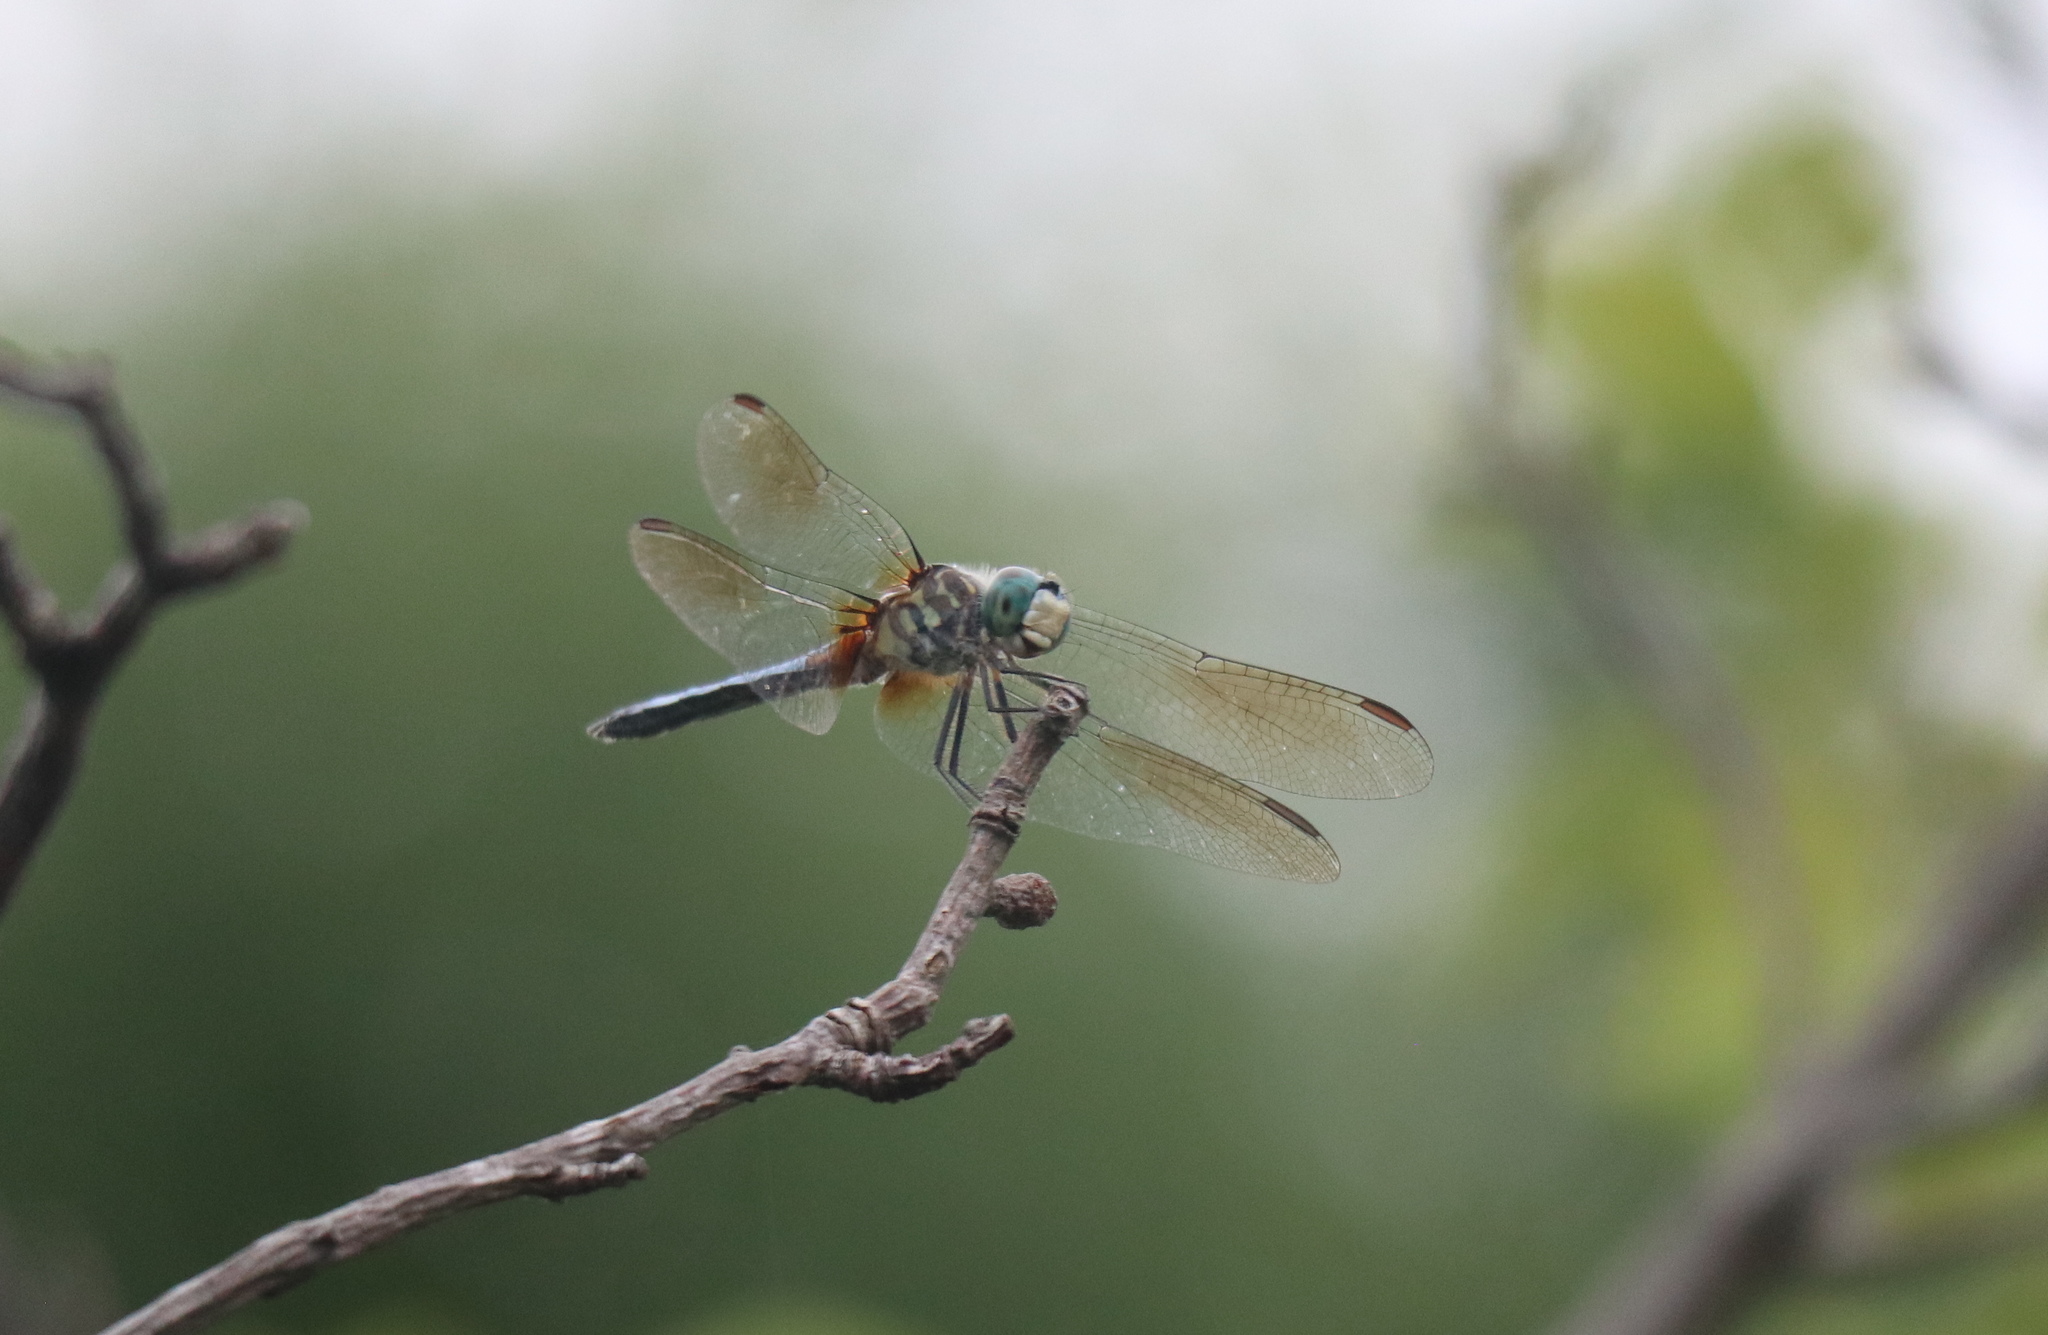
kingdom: Animalia
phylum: Arthropoda
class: Insecta
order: Odonata
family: Libellulidae
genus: Pachydiplax
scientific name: Pachydiplax longipennis
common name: Blue dasher
